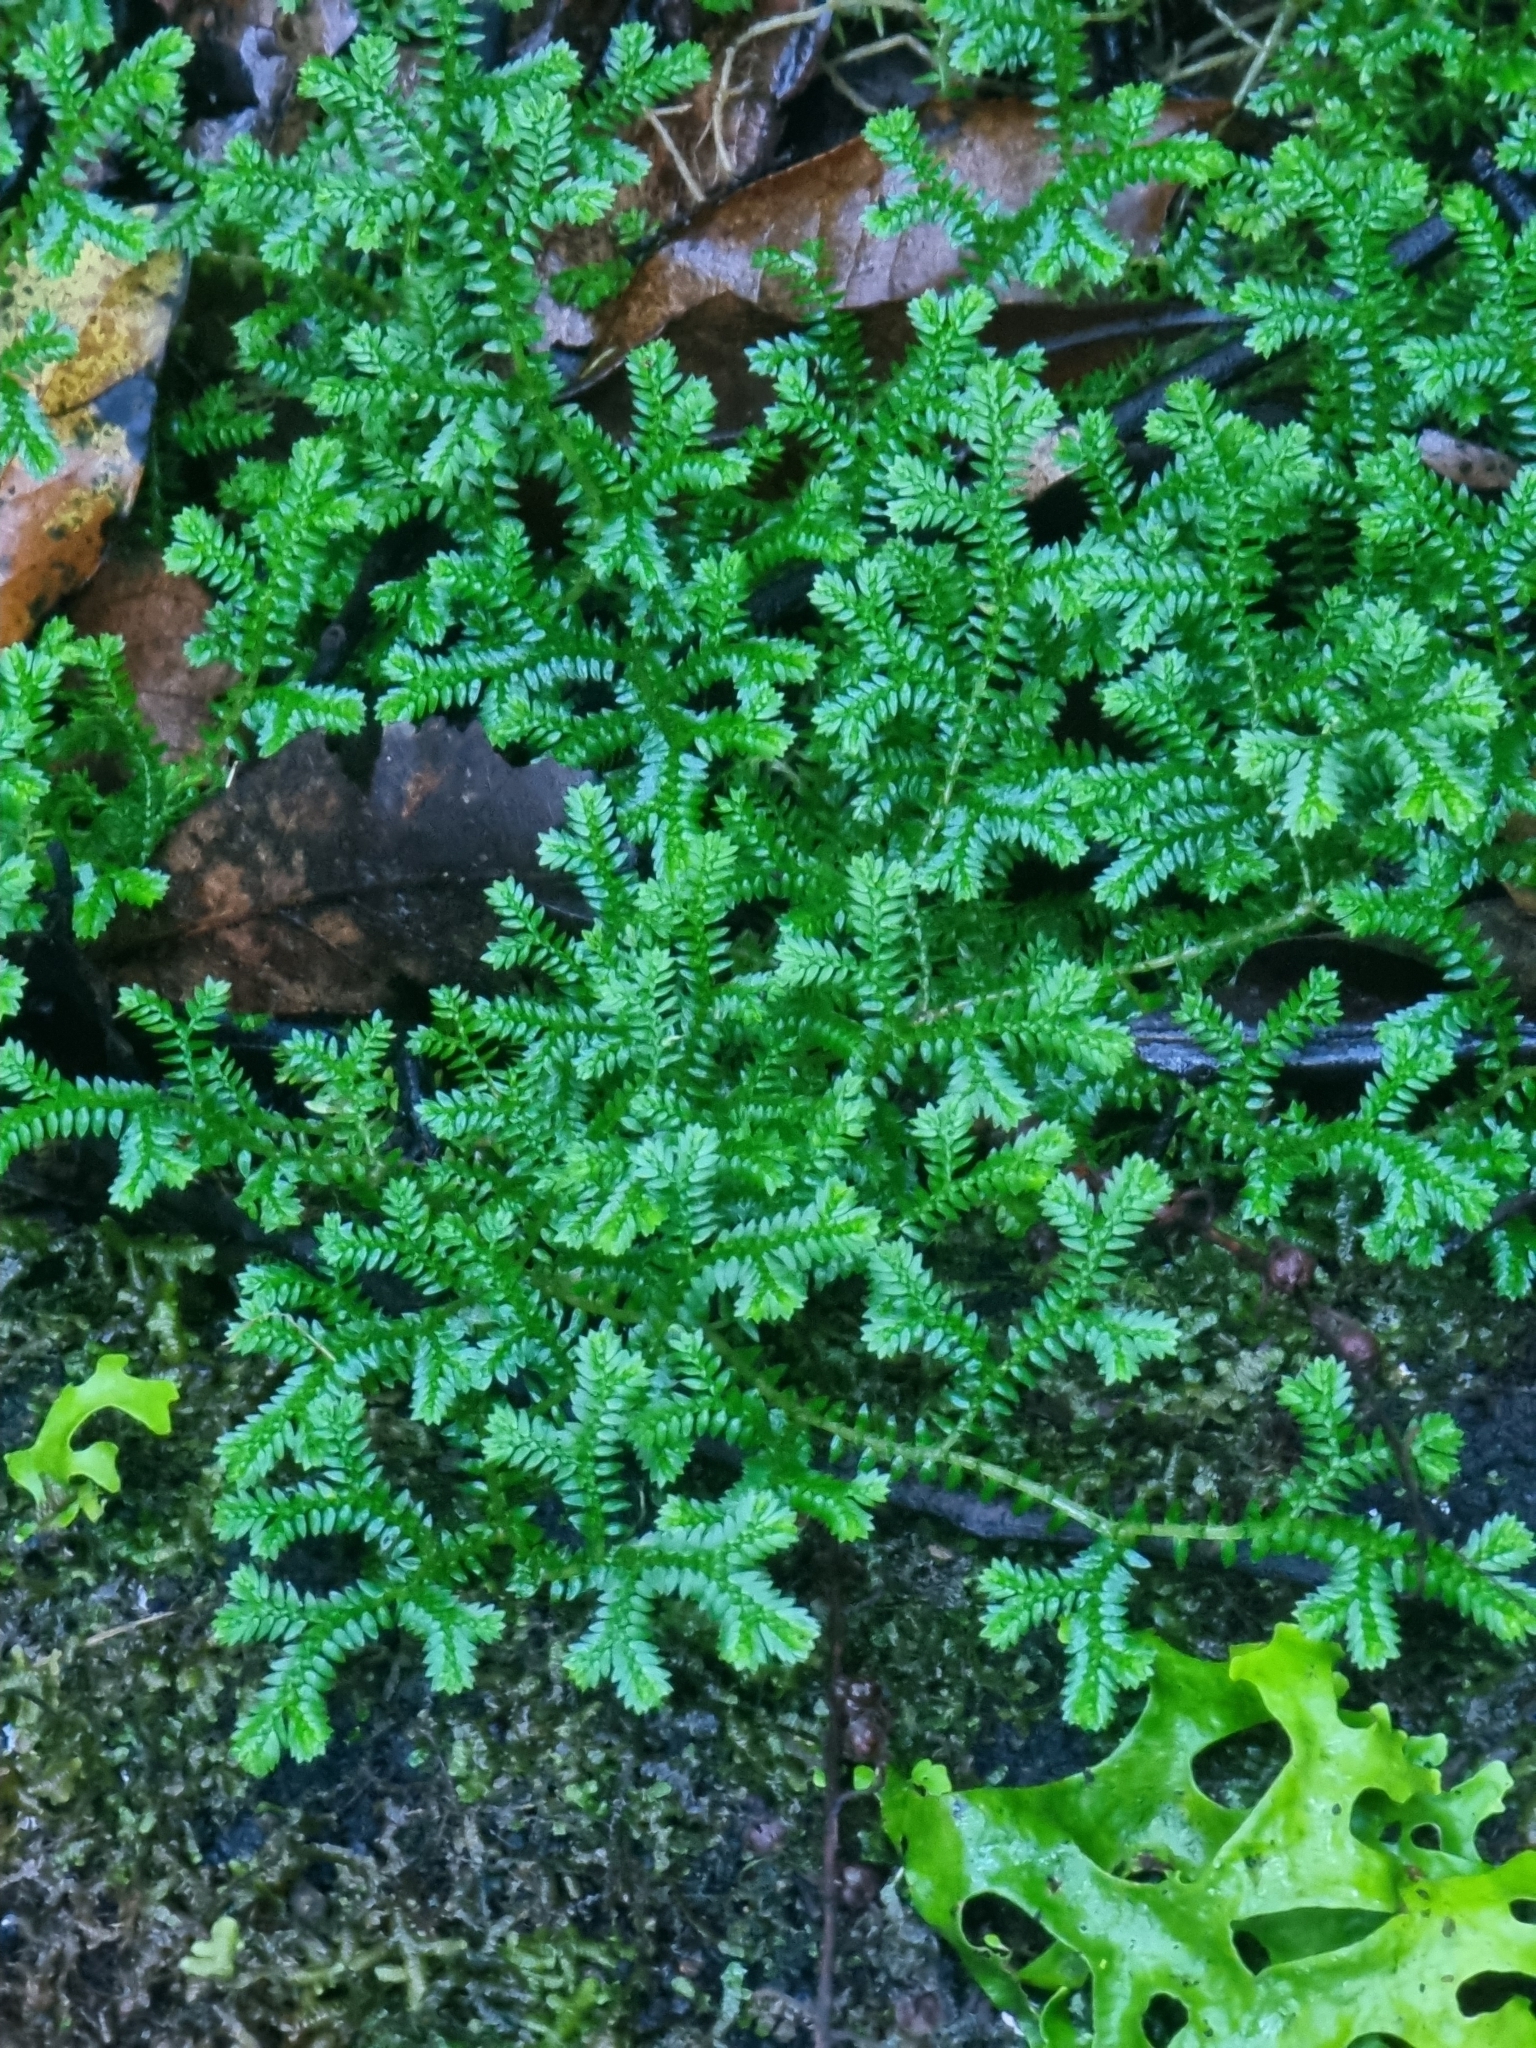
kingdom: Plantae
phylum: Tracheophyta
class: Lycopodiopsida
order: Selaginellales
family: Selaginellaceae
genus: Selaginella
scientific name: Selaginella kraussiana
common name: Krauss' spikemoss
